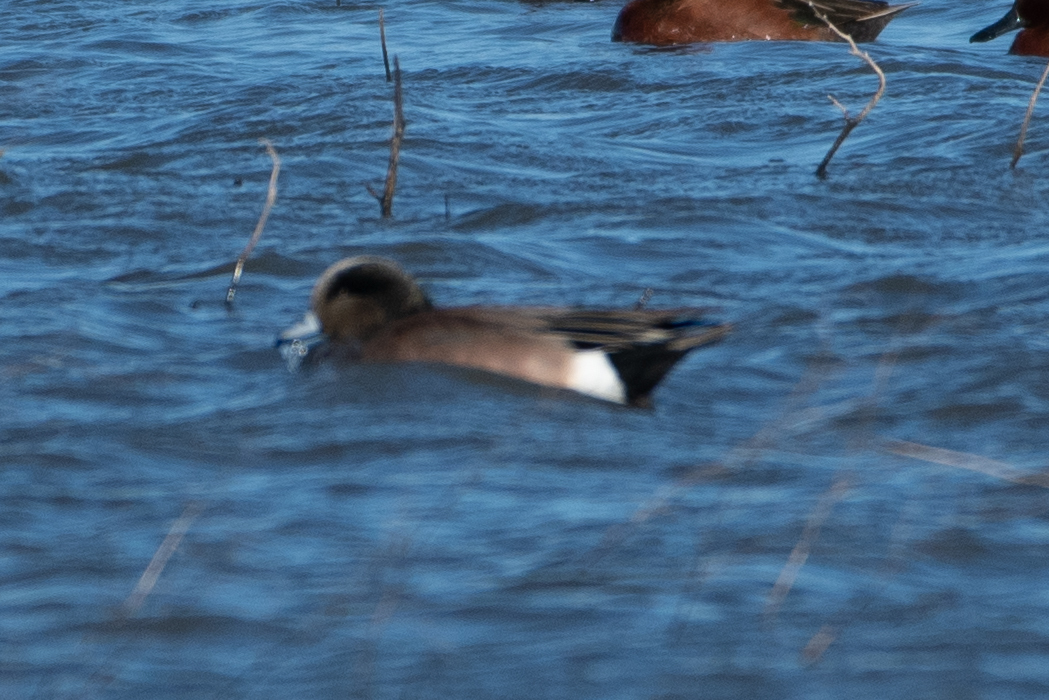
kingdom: Animalia
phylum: Chordata
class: Aves
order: Anseriformes
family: Anatidae
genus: Mareca
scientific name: Mareca americana
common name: American wigeon
